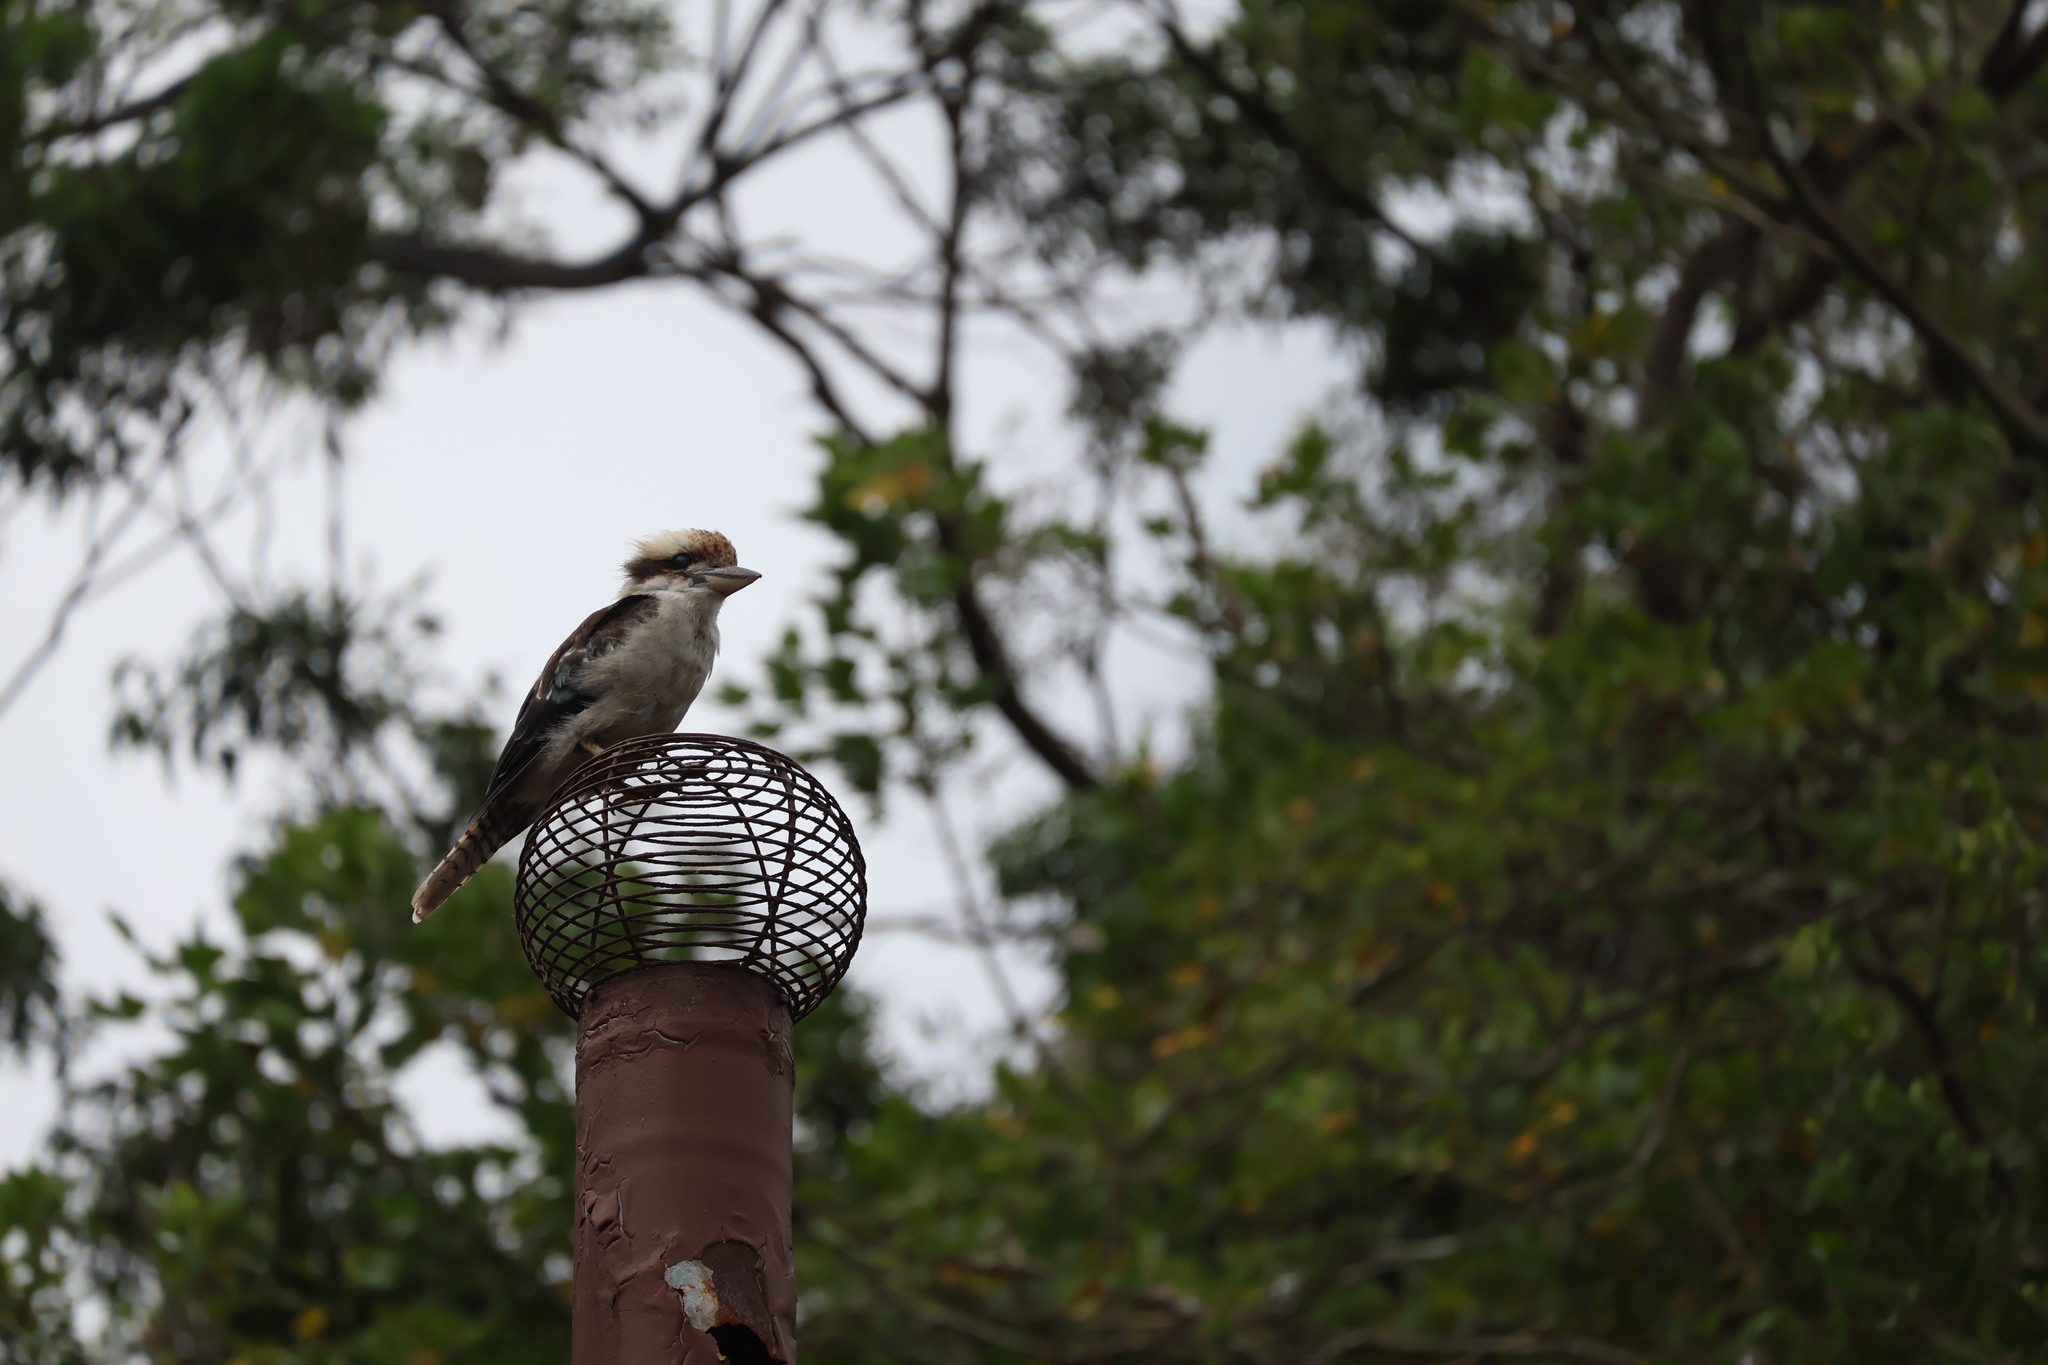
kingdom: Animalia
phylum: Chordata
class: Aves
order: Coraciiformes
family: Alcedinidae
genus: Dacelo
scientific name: Dacelo novaeguineae
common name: Laughing kookaburra
